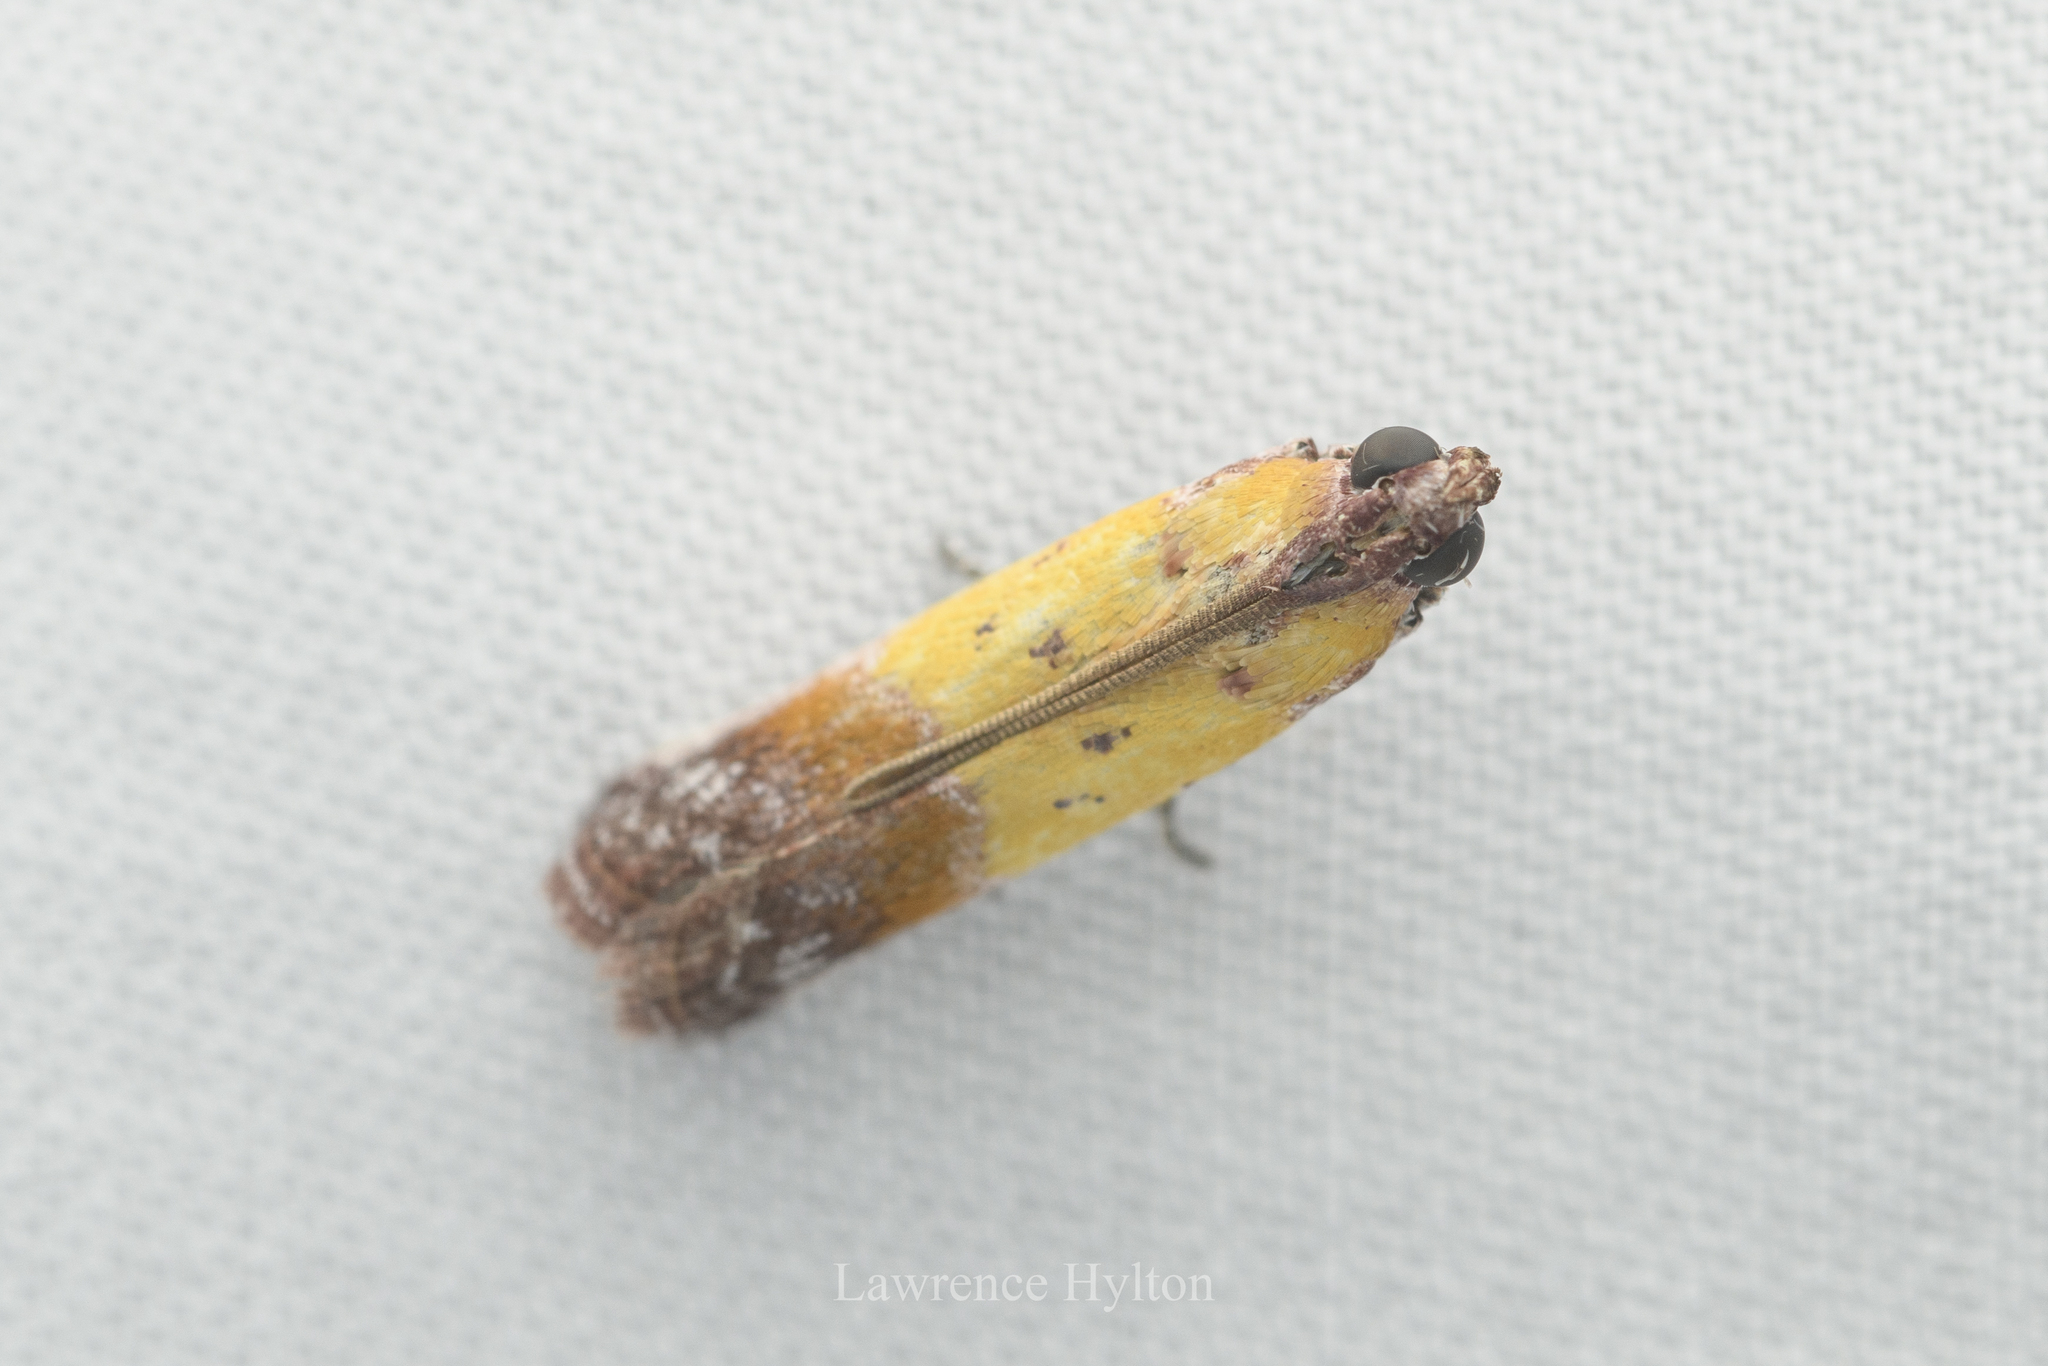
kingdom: Animalia
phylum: Arthropoda
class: Insecta
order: Lepidoptera
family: Pyralidae
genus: Piesmopoda
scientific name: Piesmopoda
